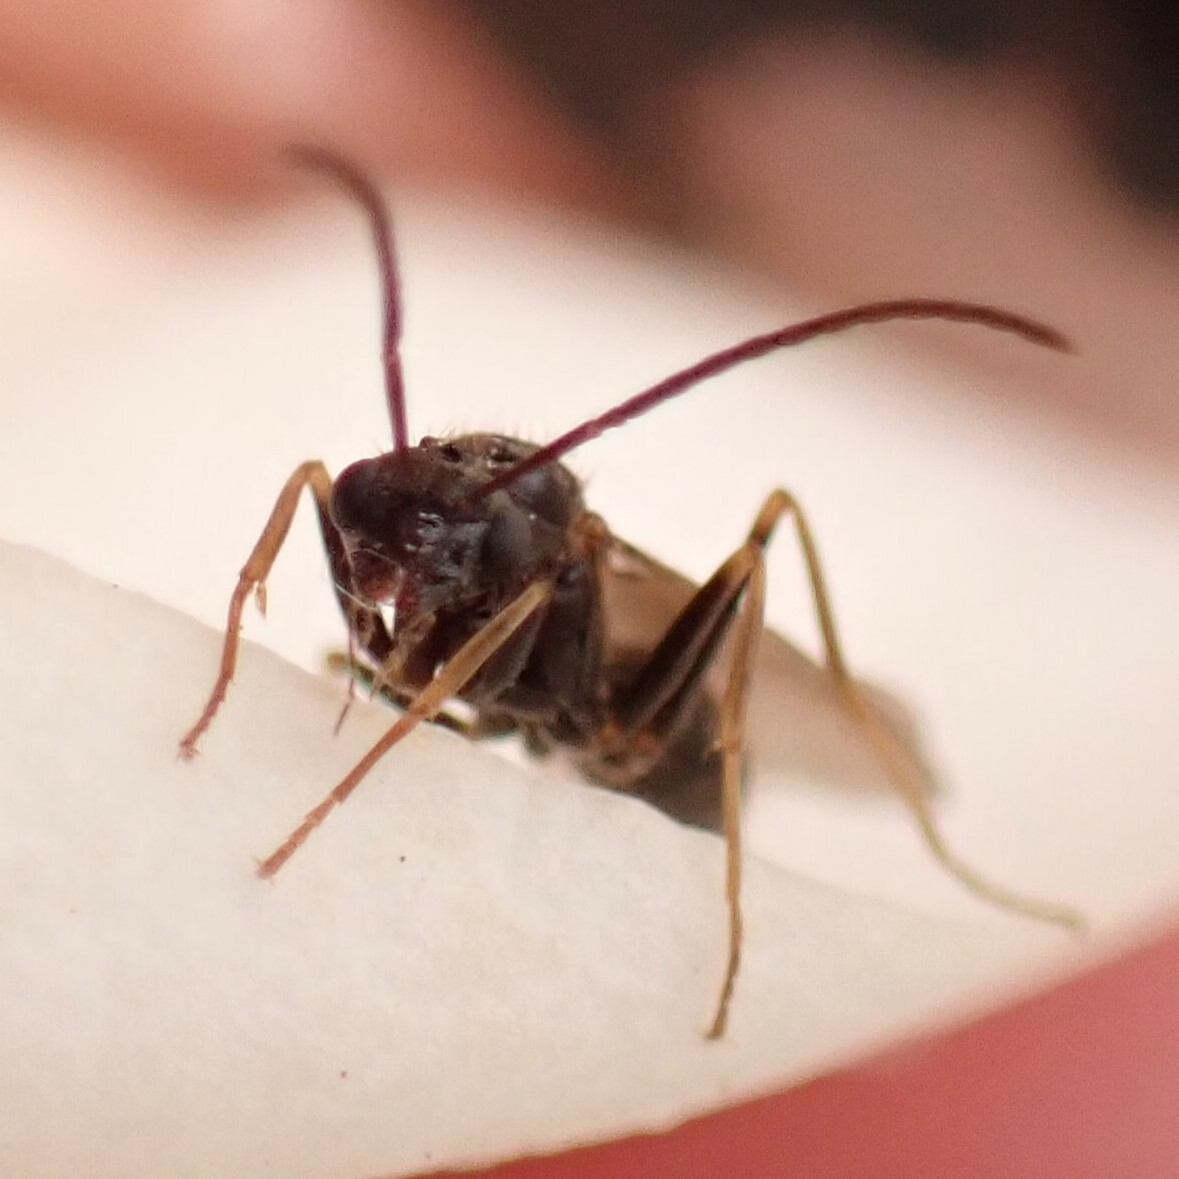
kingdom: Animalia
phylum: Arthropoda
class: Insecta
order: Hymenoptera
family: Formicidae
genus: Prenolepis
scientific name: Prenolepis imparis
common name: Small honey ant
